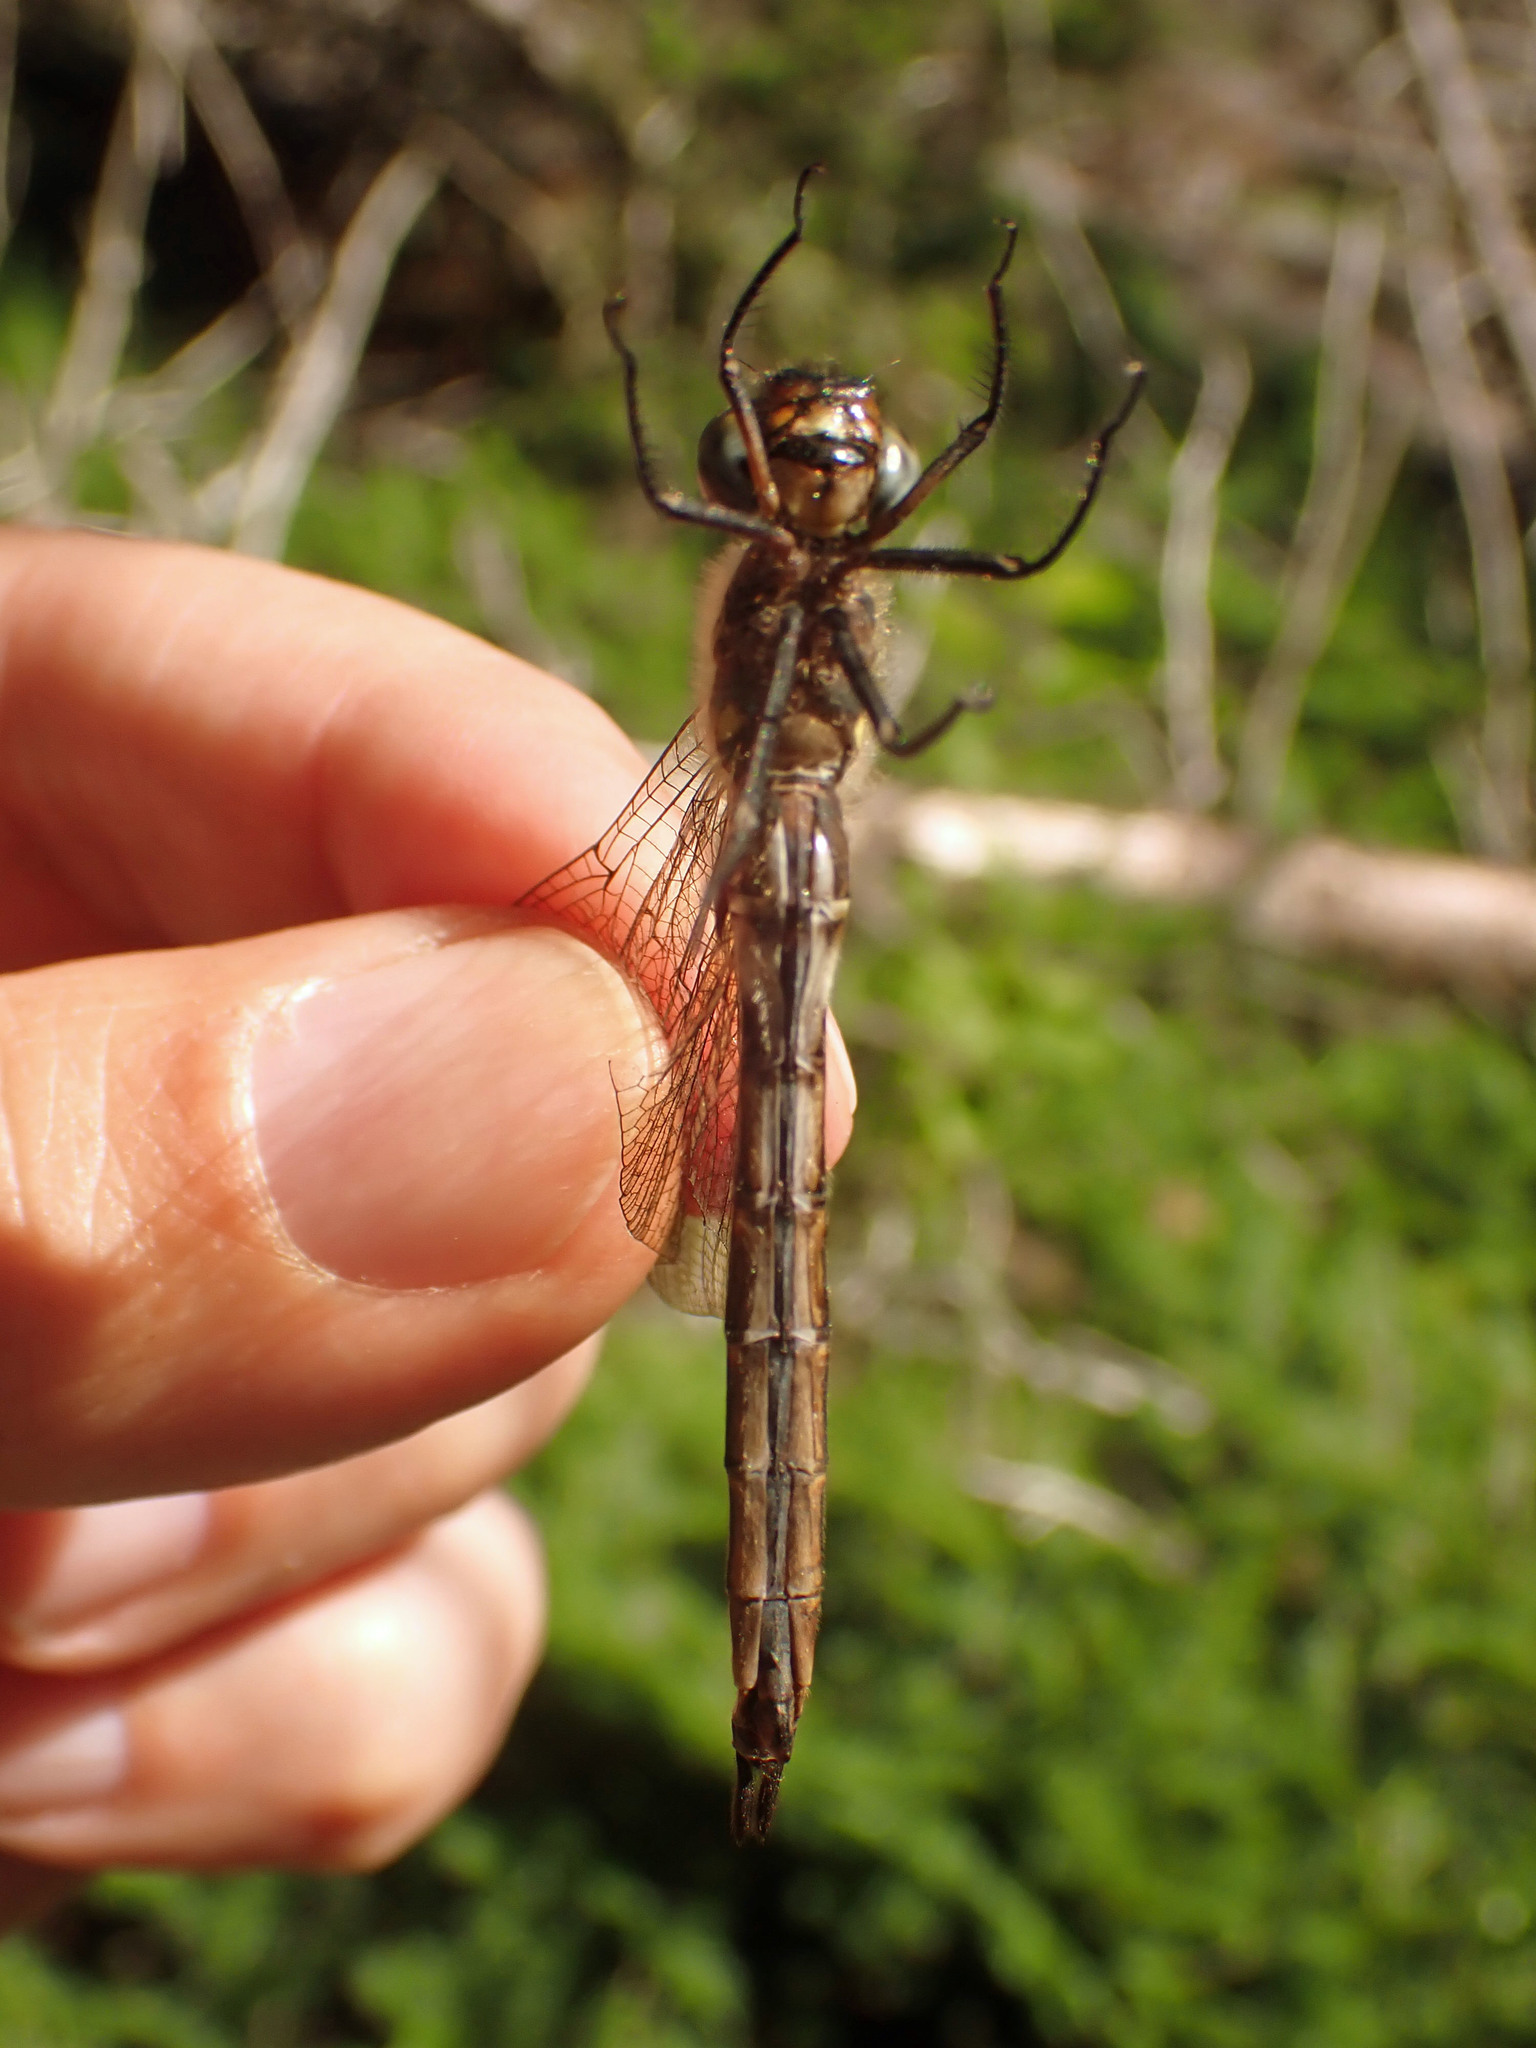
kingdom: Animalia
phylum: Arthropoda
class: Insecta
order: Odonata
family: Corduliidae
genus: Somatochlora
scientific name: Somatochlora walshii
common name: Brush-tipped emerald
